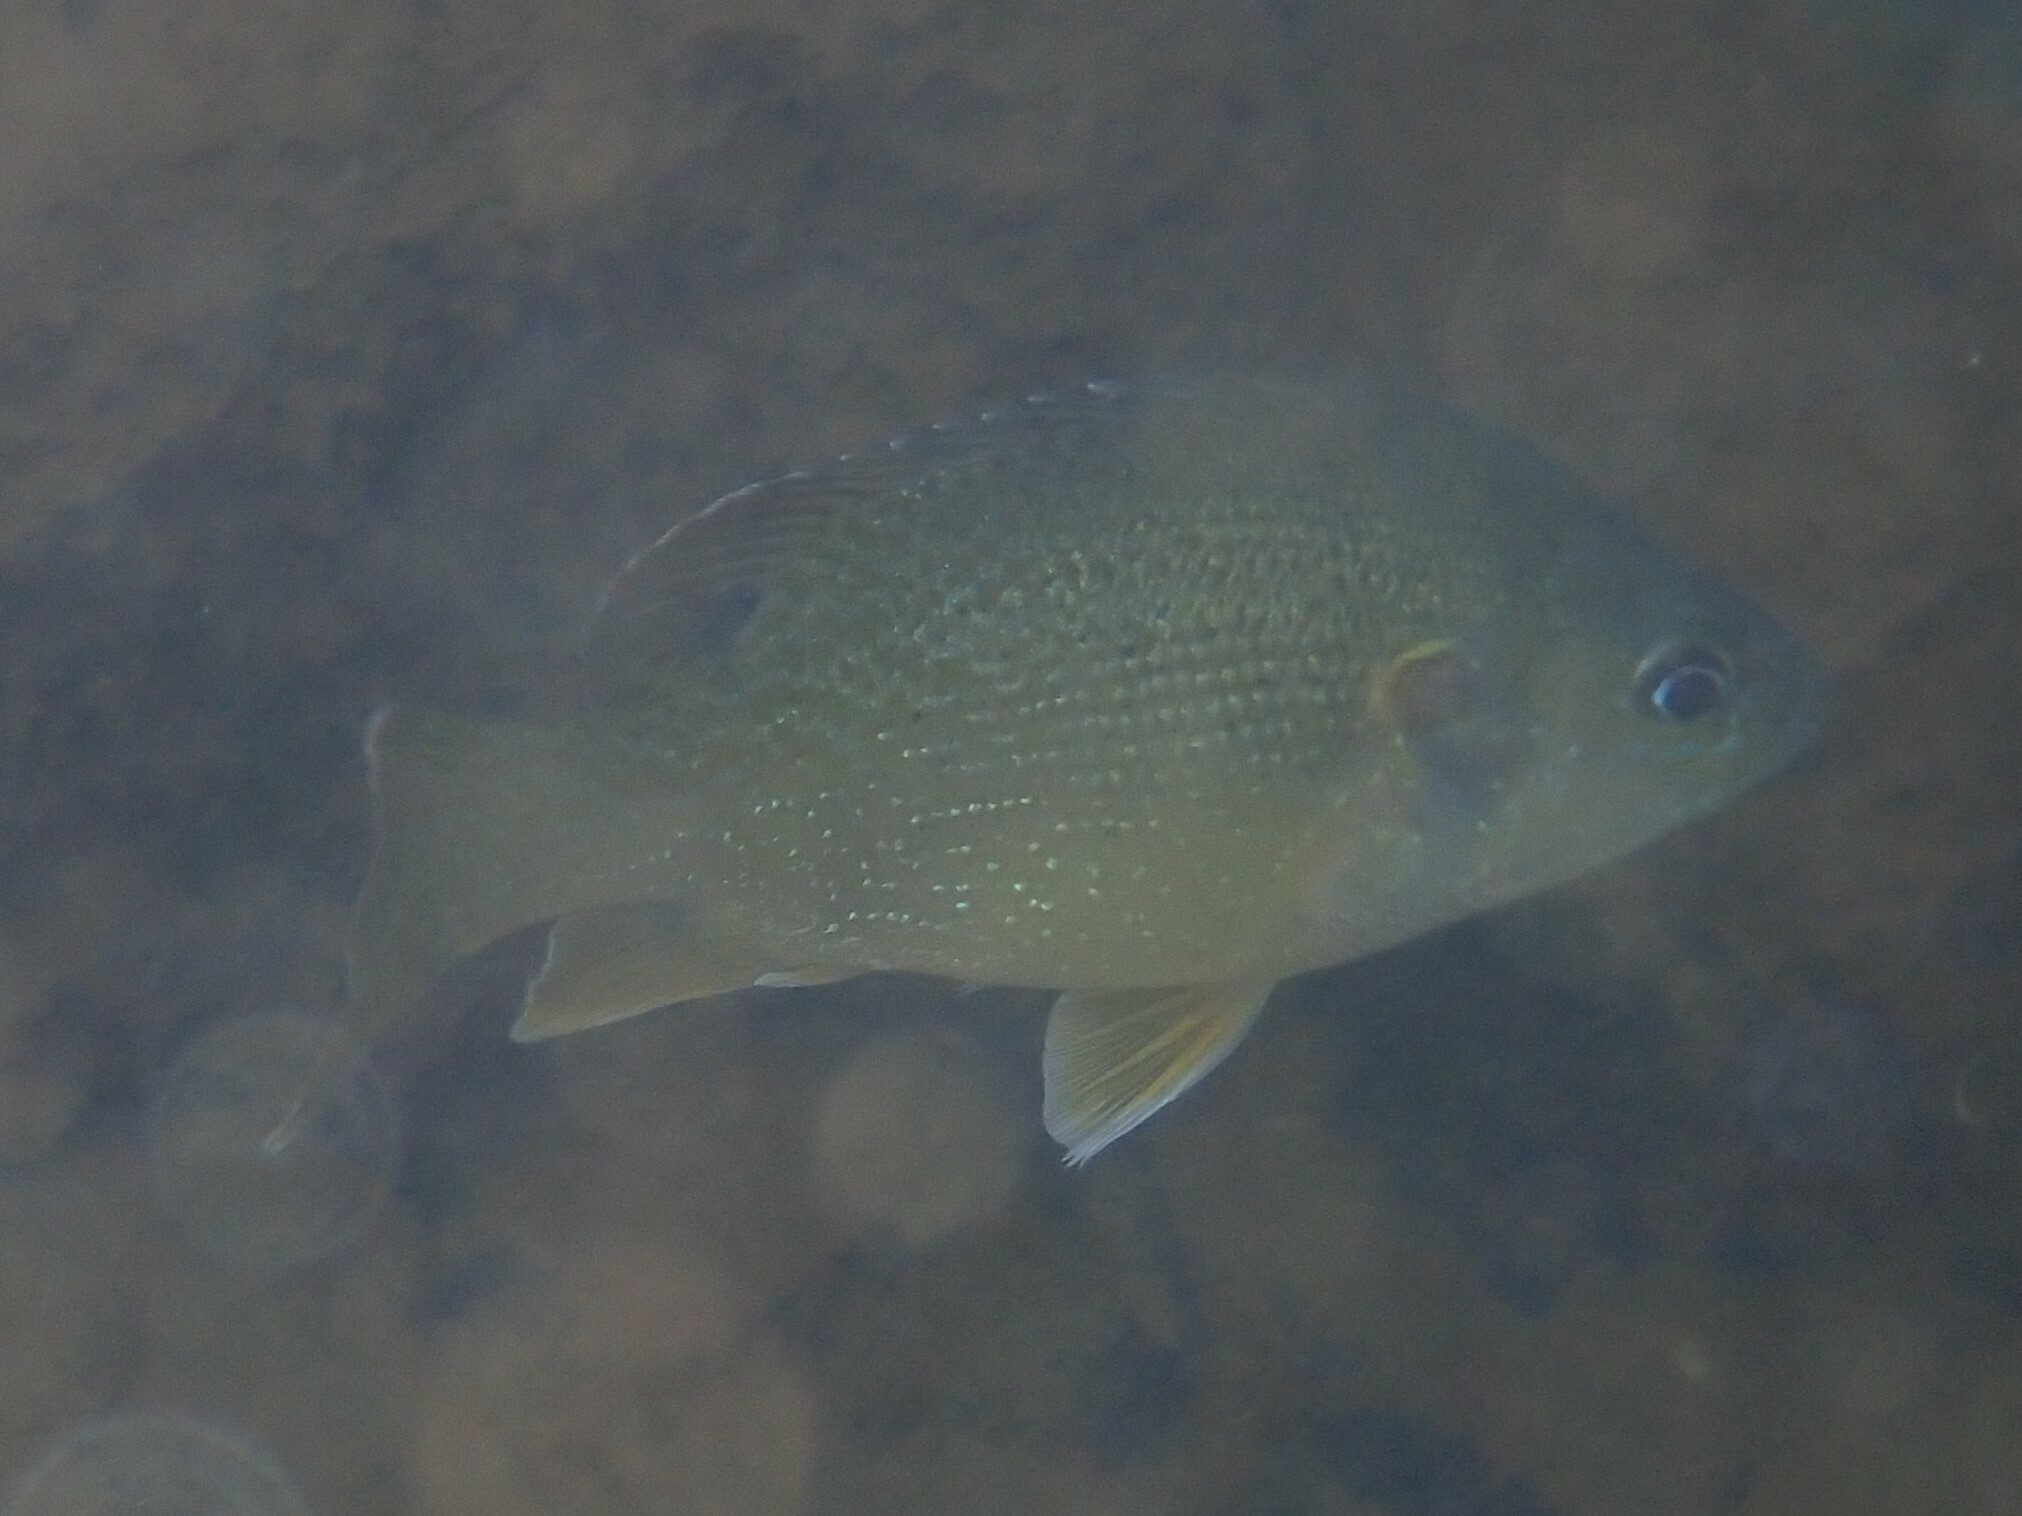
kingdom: Animalia
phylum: Chordata
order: Perciformes
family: Centrarchidae
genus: Lepomis
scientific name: Lepomis cyanellus
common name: Green sunfish
